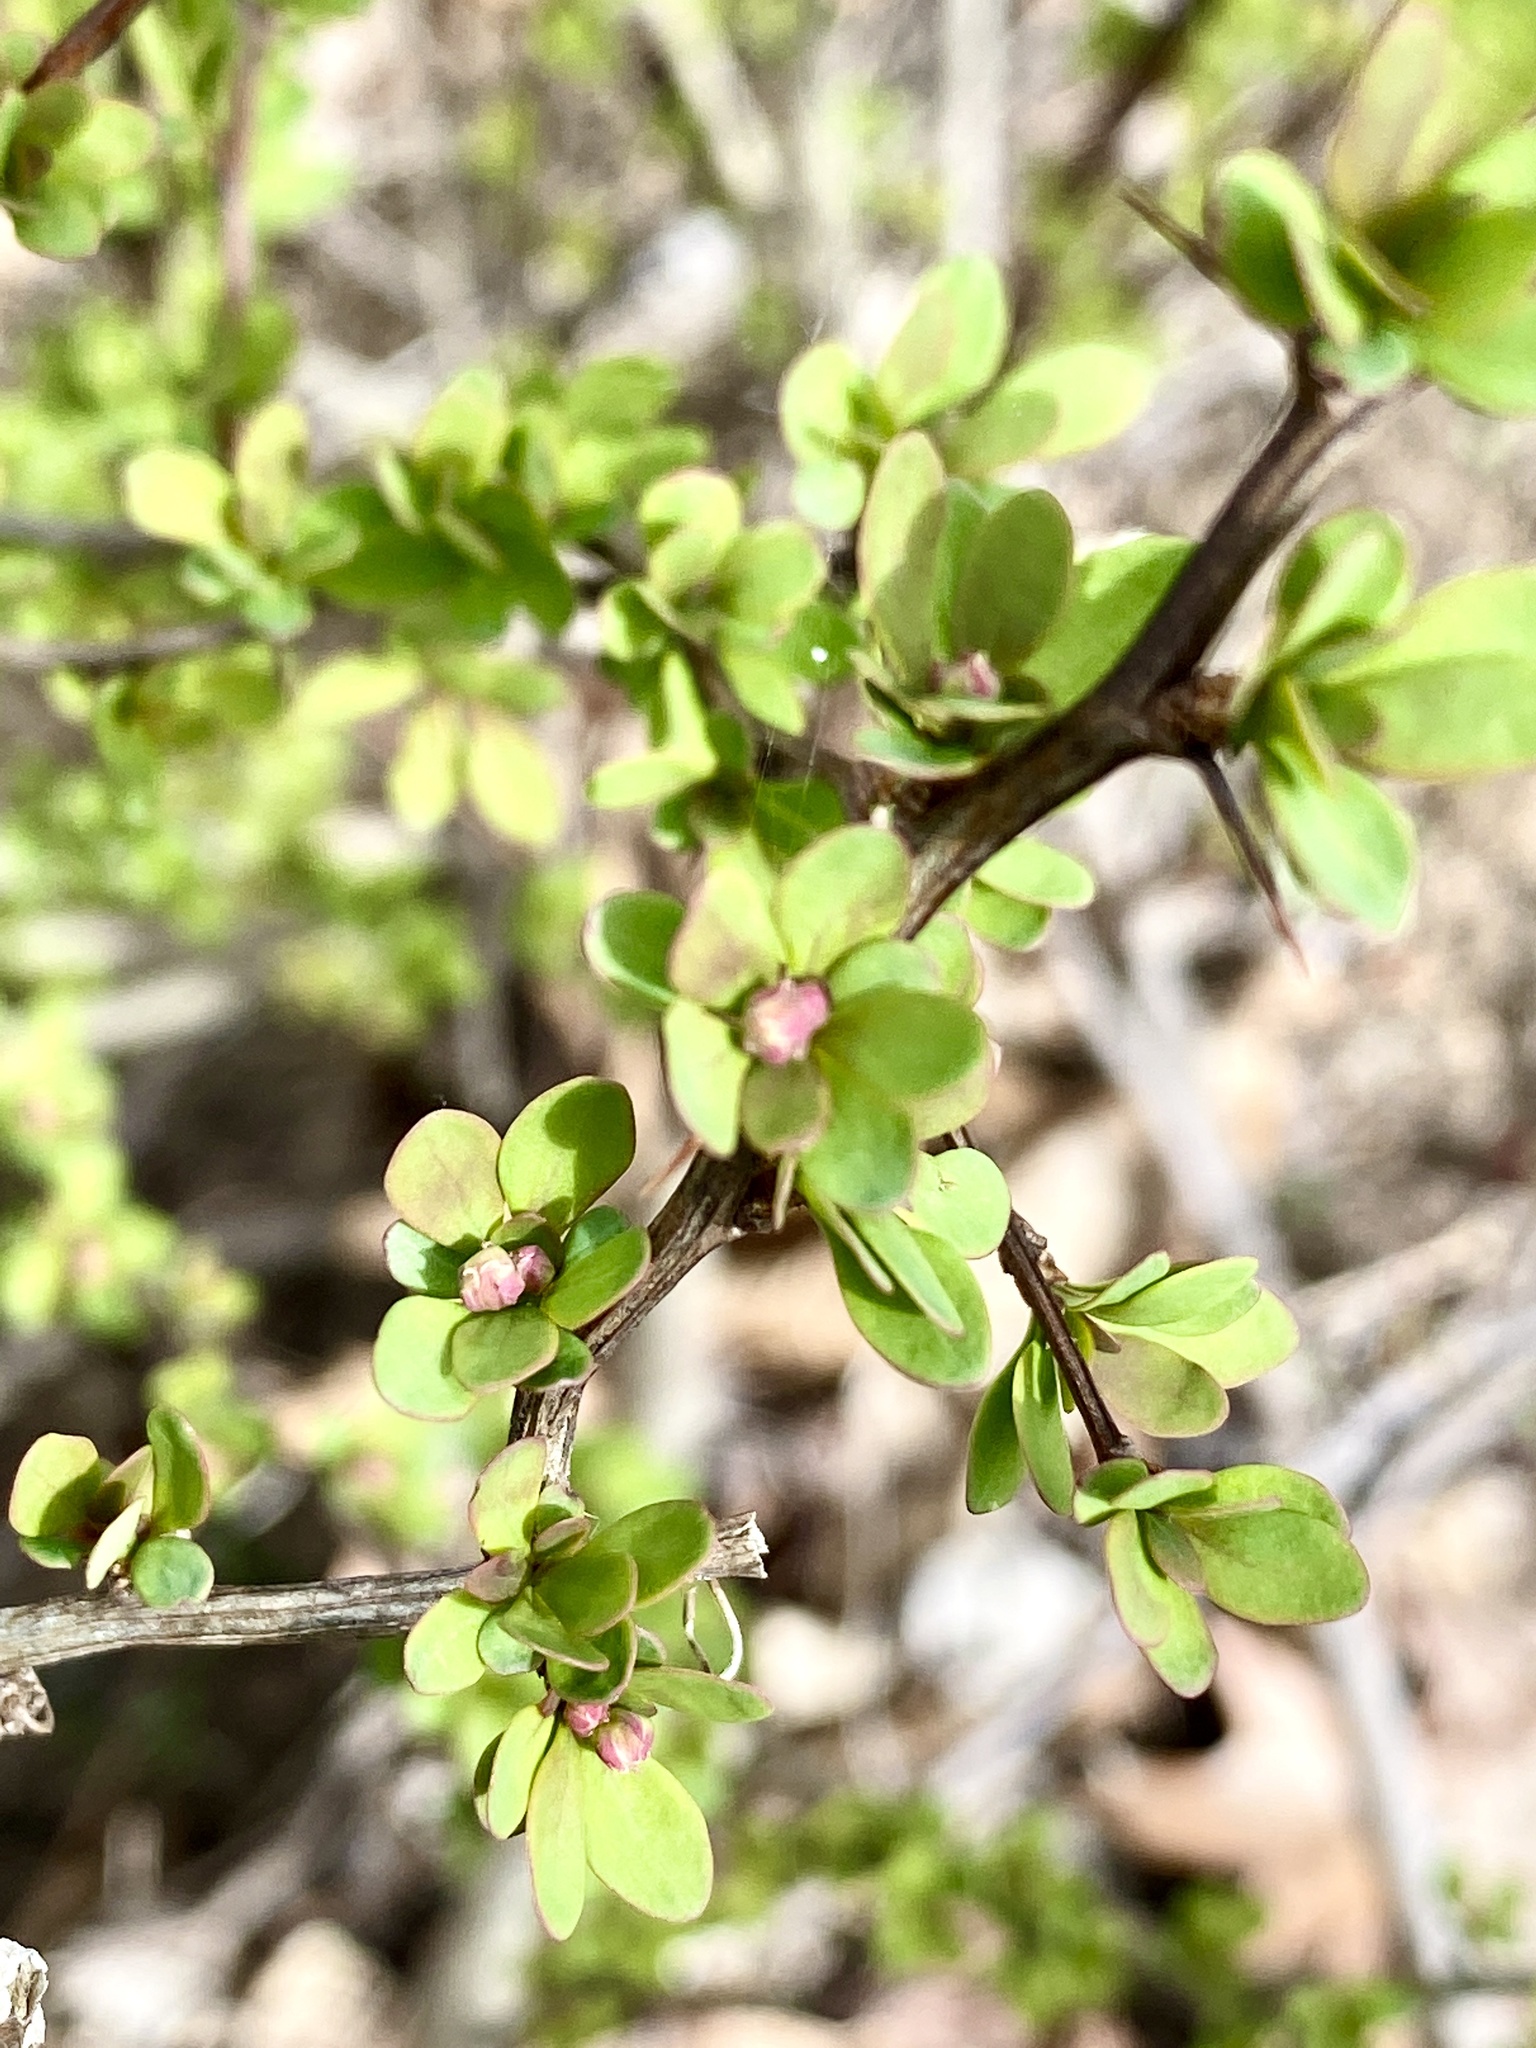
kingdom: Plantae
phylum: Tracheophyta
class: Magnoliopsida
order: Ranunculales
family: Berberidaceae
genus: Berberis
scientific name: Berberis thunbergii
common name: Japanese barberry
